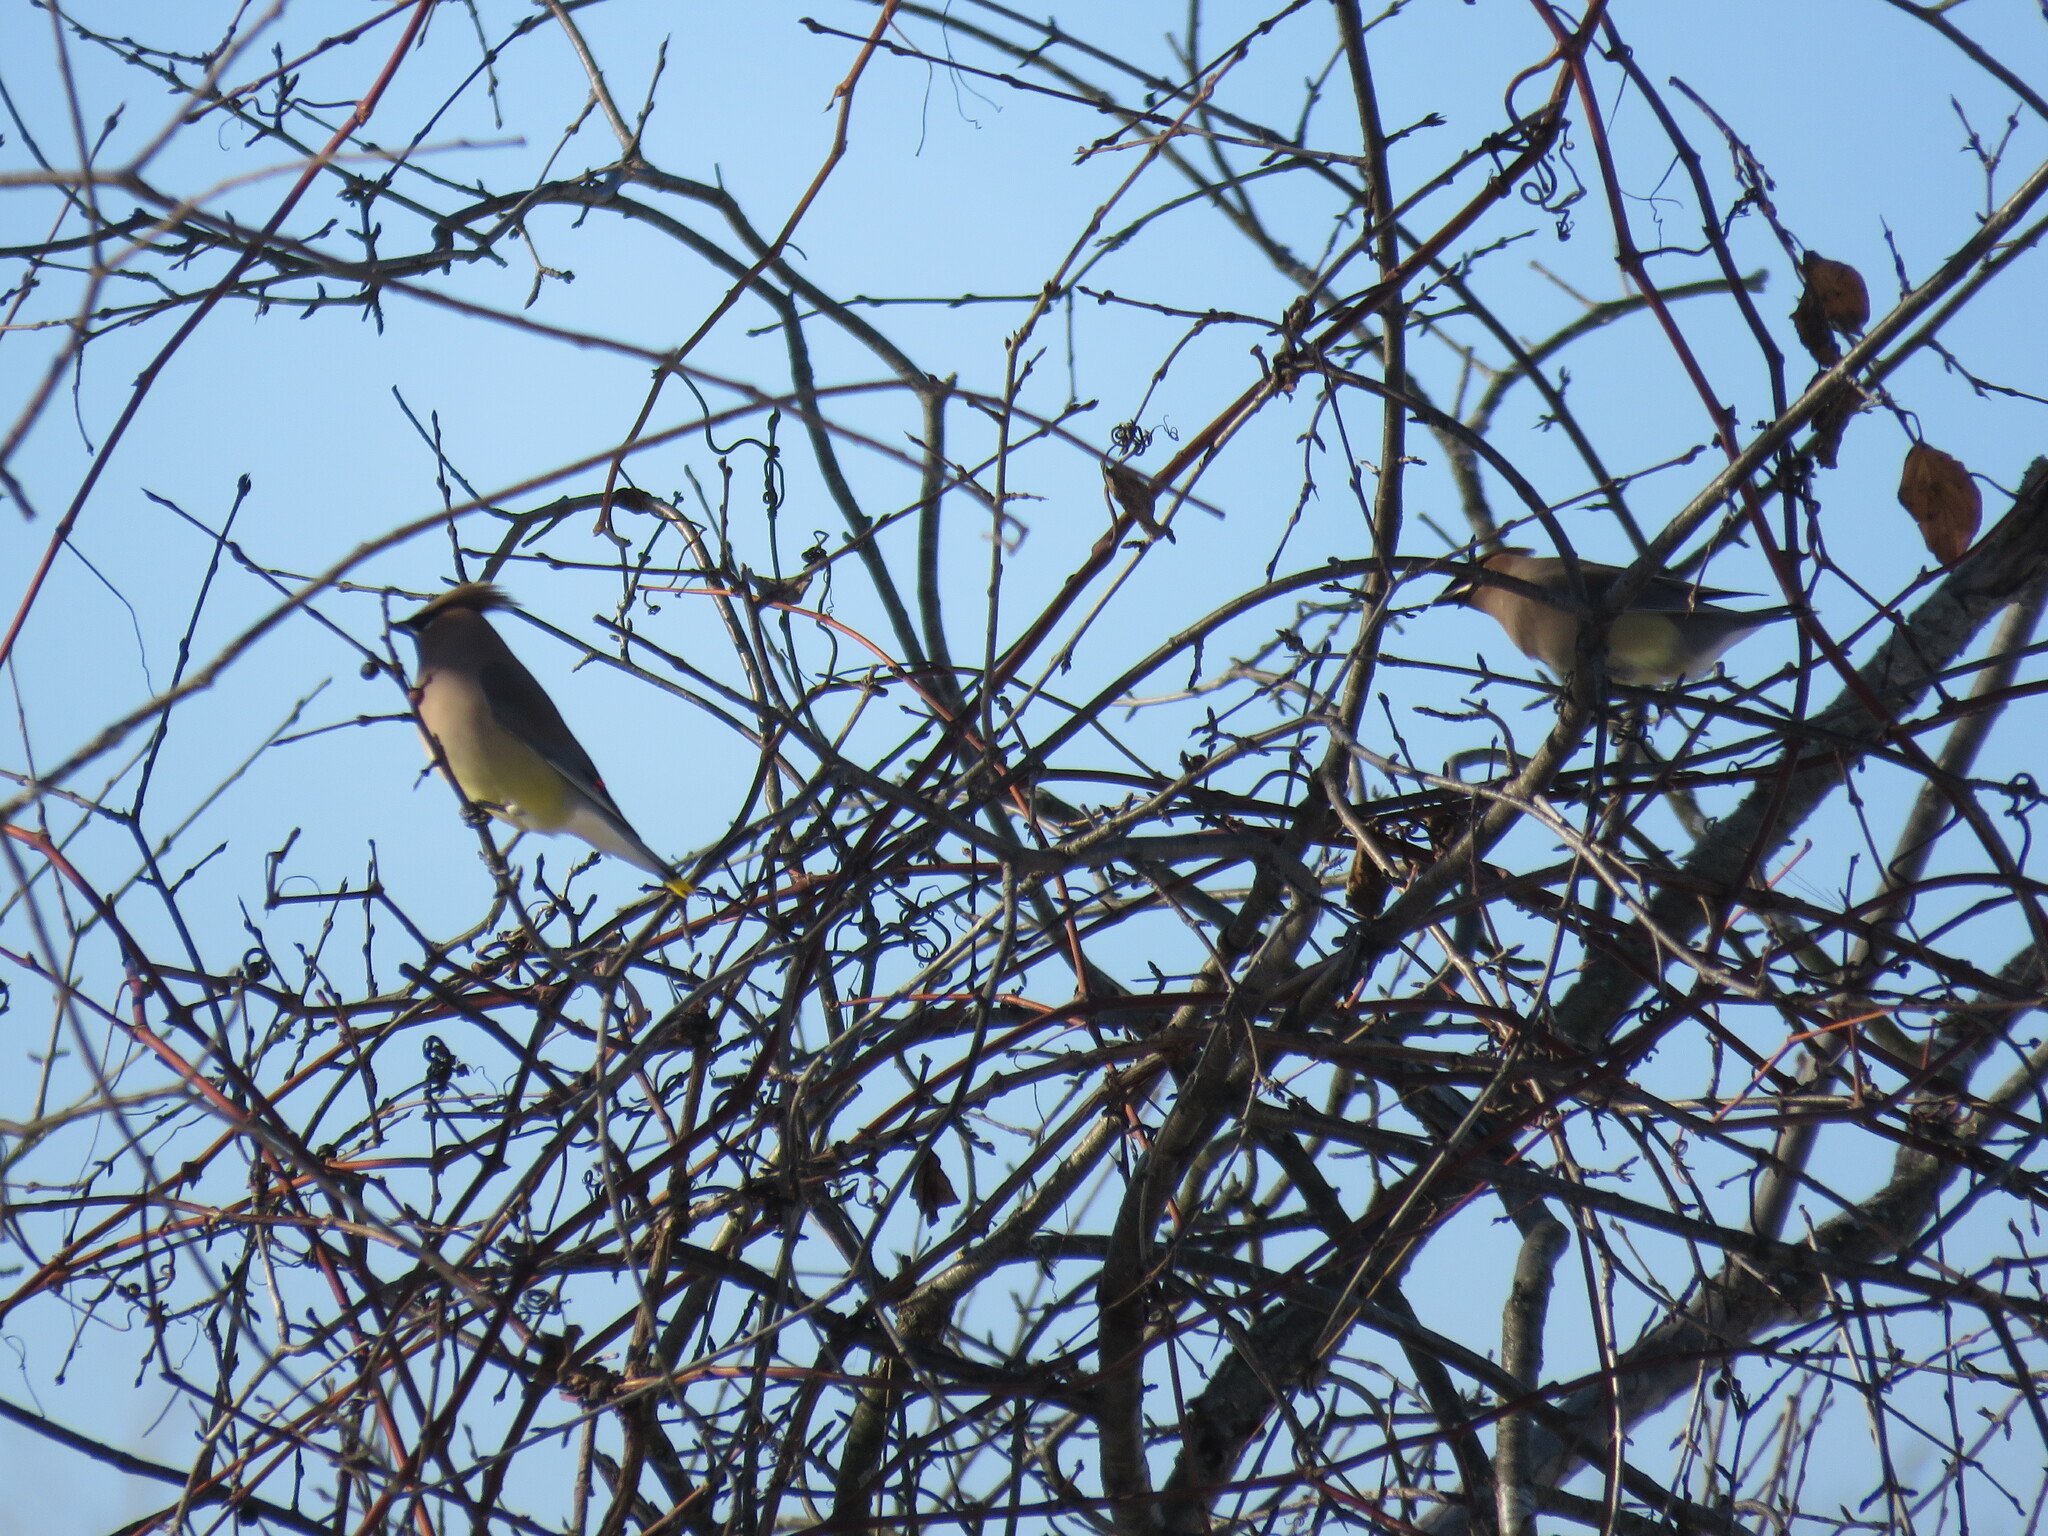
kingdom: Animalia
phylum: Chordata
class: Aves
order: Passeriformes
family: Bombycillidae
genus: Bombycilla
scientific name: Bombycilla cedrorum
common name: Cedar waxwing
